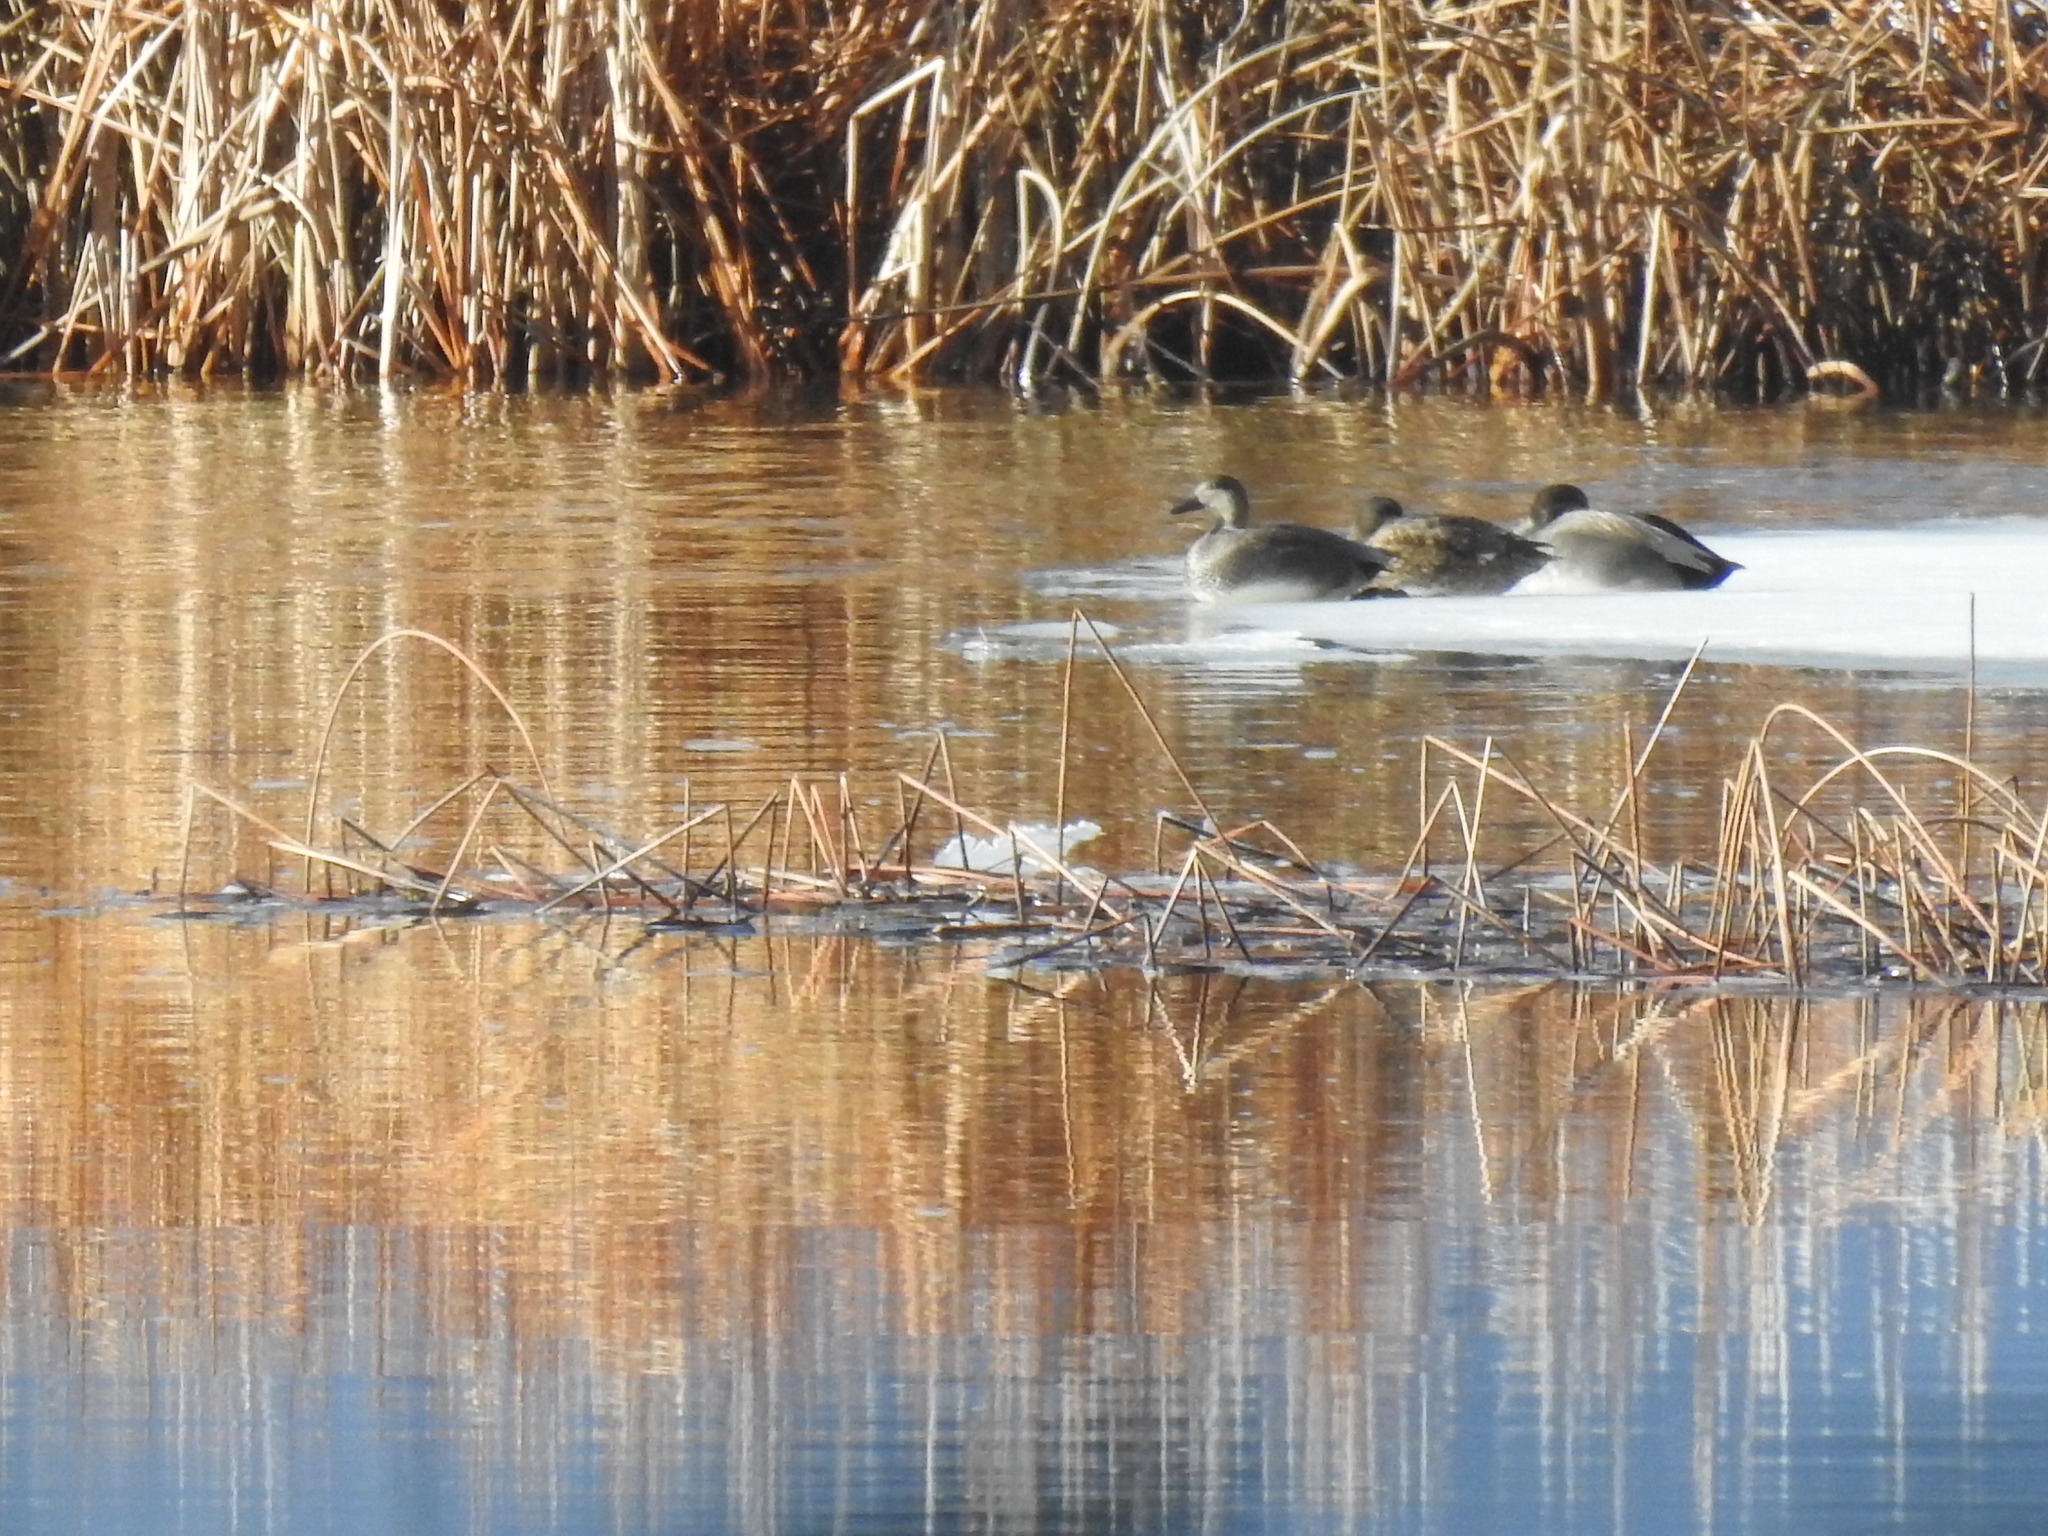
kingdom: Animalia
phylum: Chordata
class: Aves
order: Anseriformes
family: Anatidae
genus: Mareca
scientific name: Mareca strepera
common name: Gadwall
